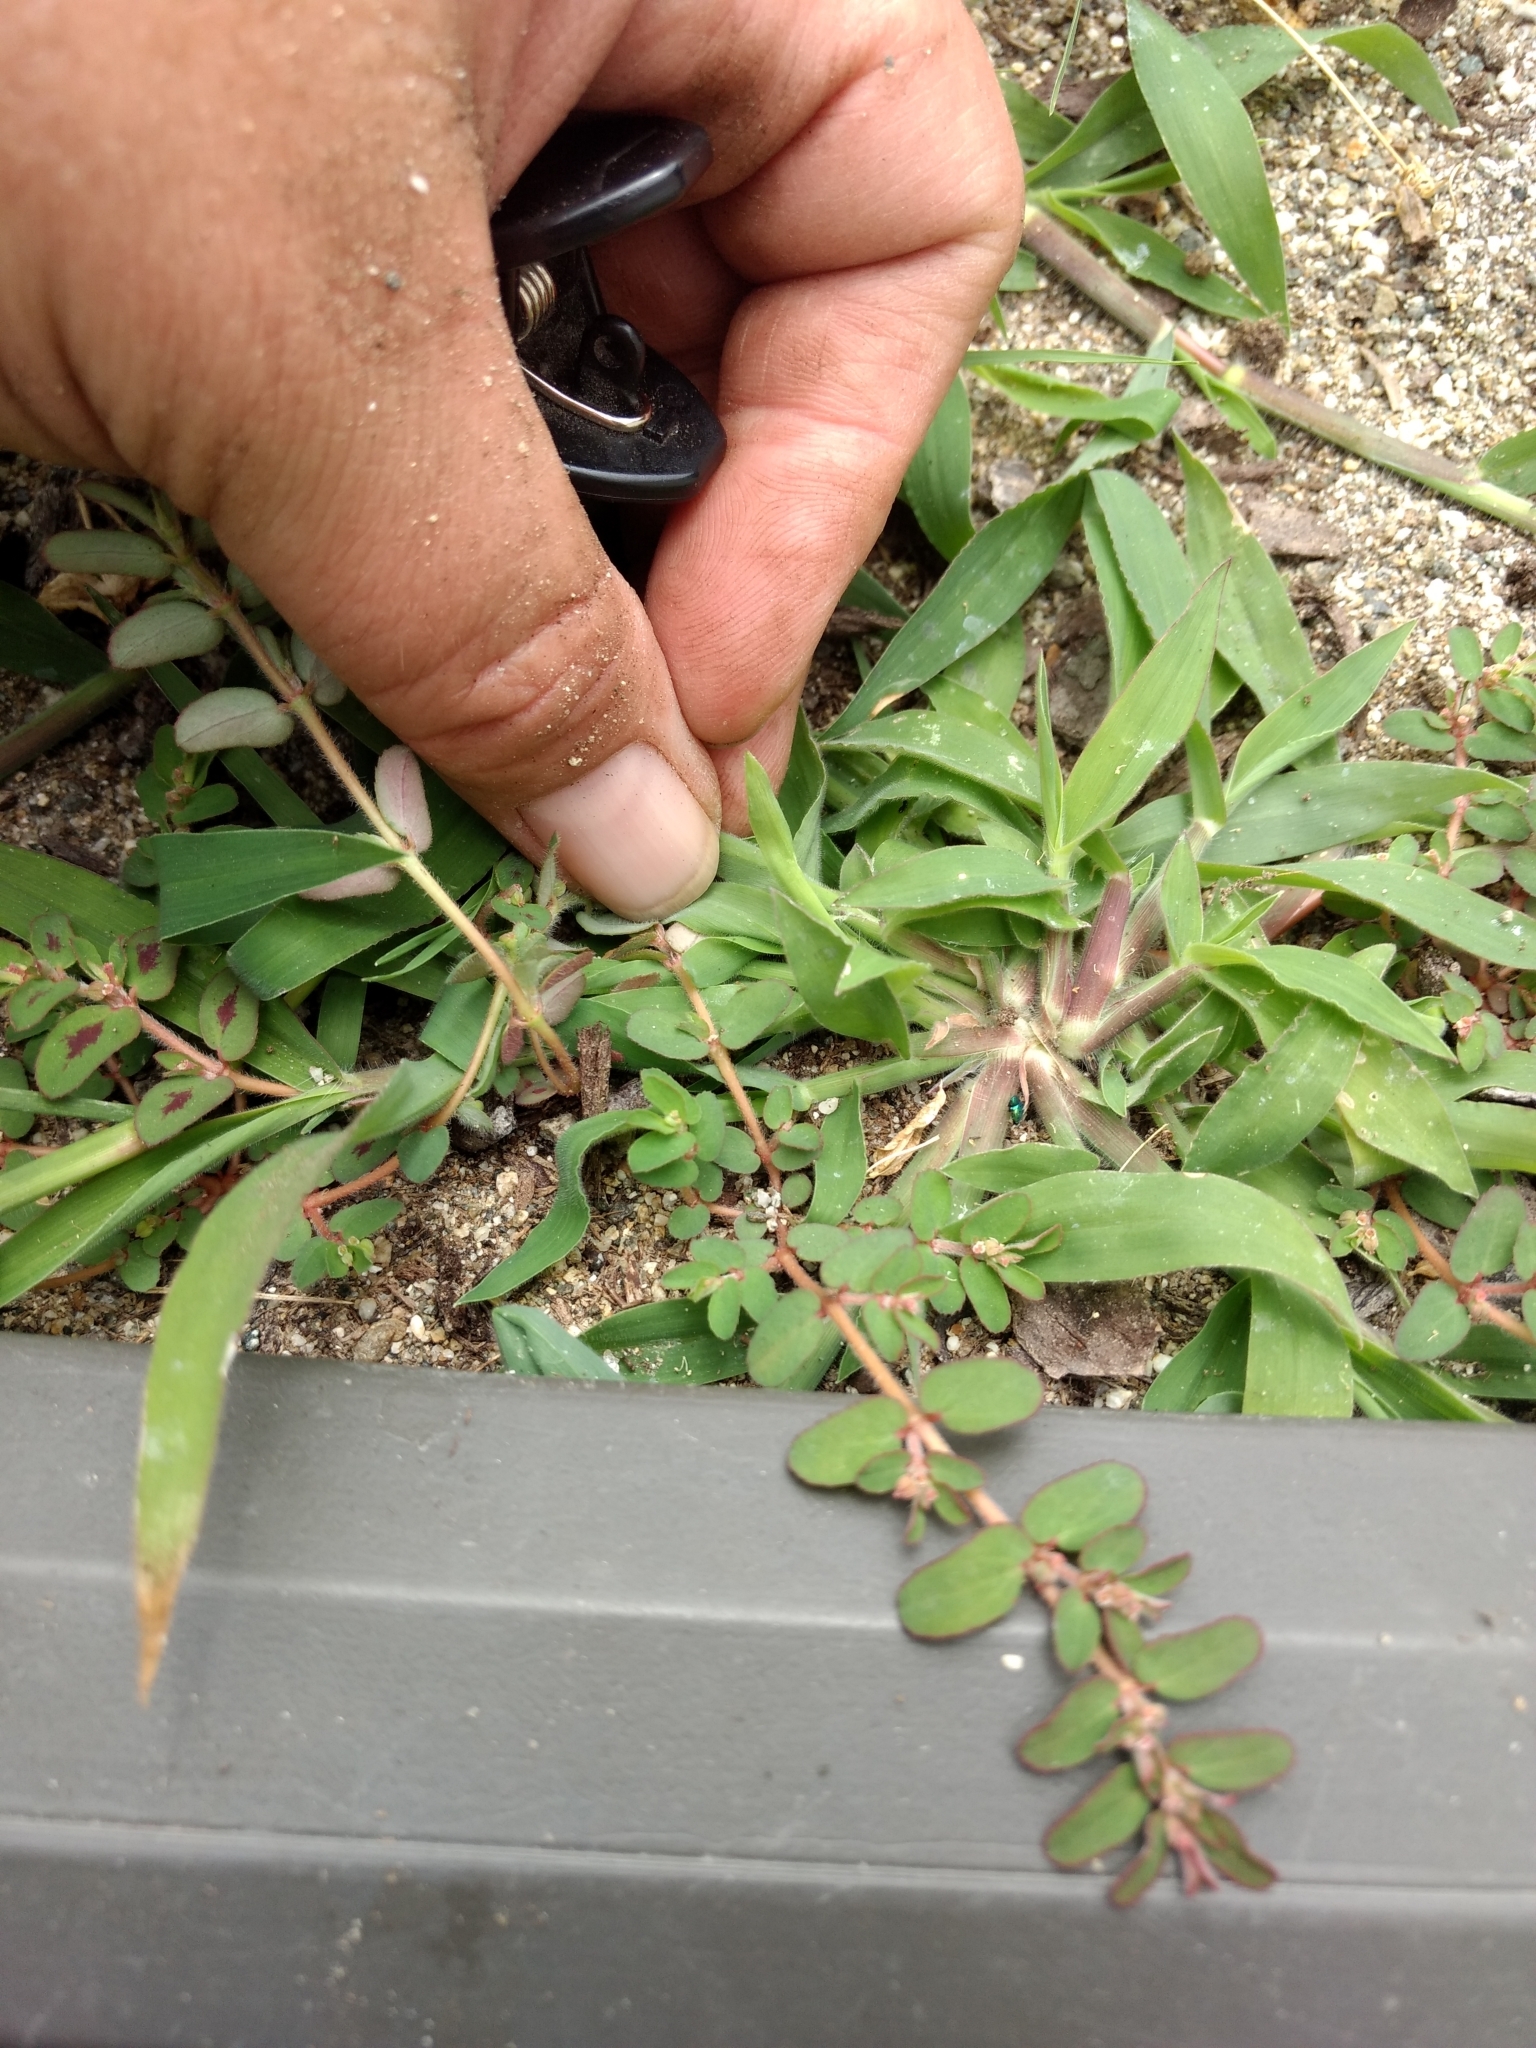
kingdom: Plantae
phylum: Tracheophyta
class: Magnoliopsida
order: Malpighiales
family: Euphorbiaceae
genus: Euphorbia
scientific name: Euphorbia maculata
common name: Spotted spurge
